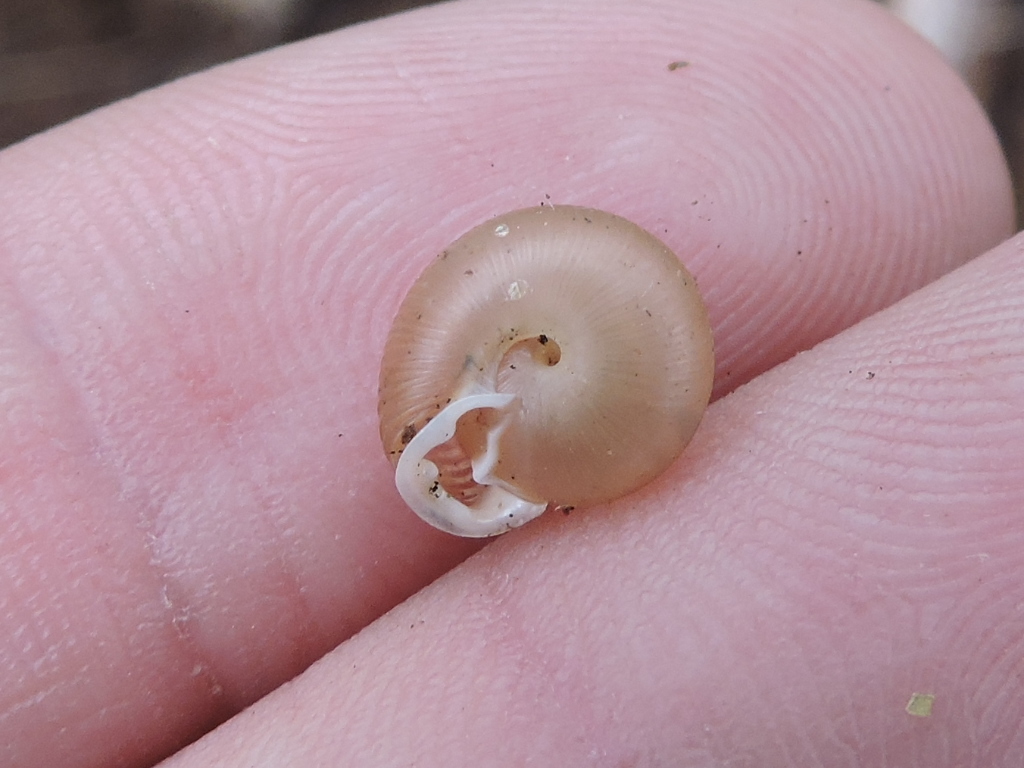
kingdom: Animalia
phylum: Mollusca
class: Gastropoda
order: Stylommatophora
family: Polygyridae
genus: Linisa
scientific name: Linisa texasiana
